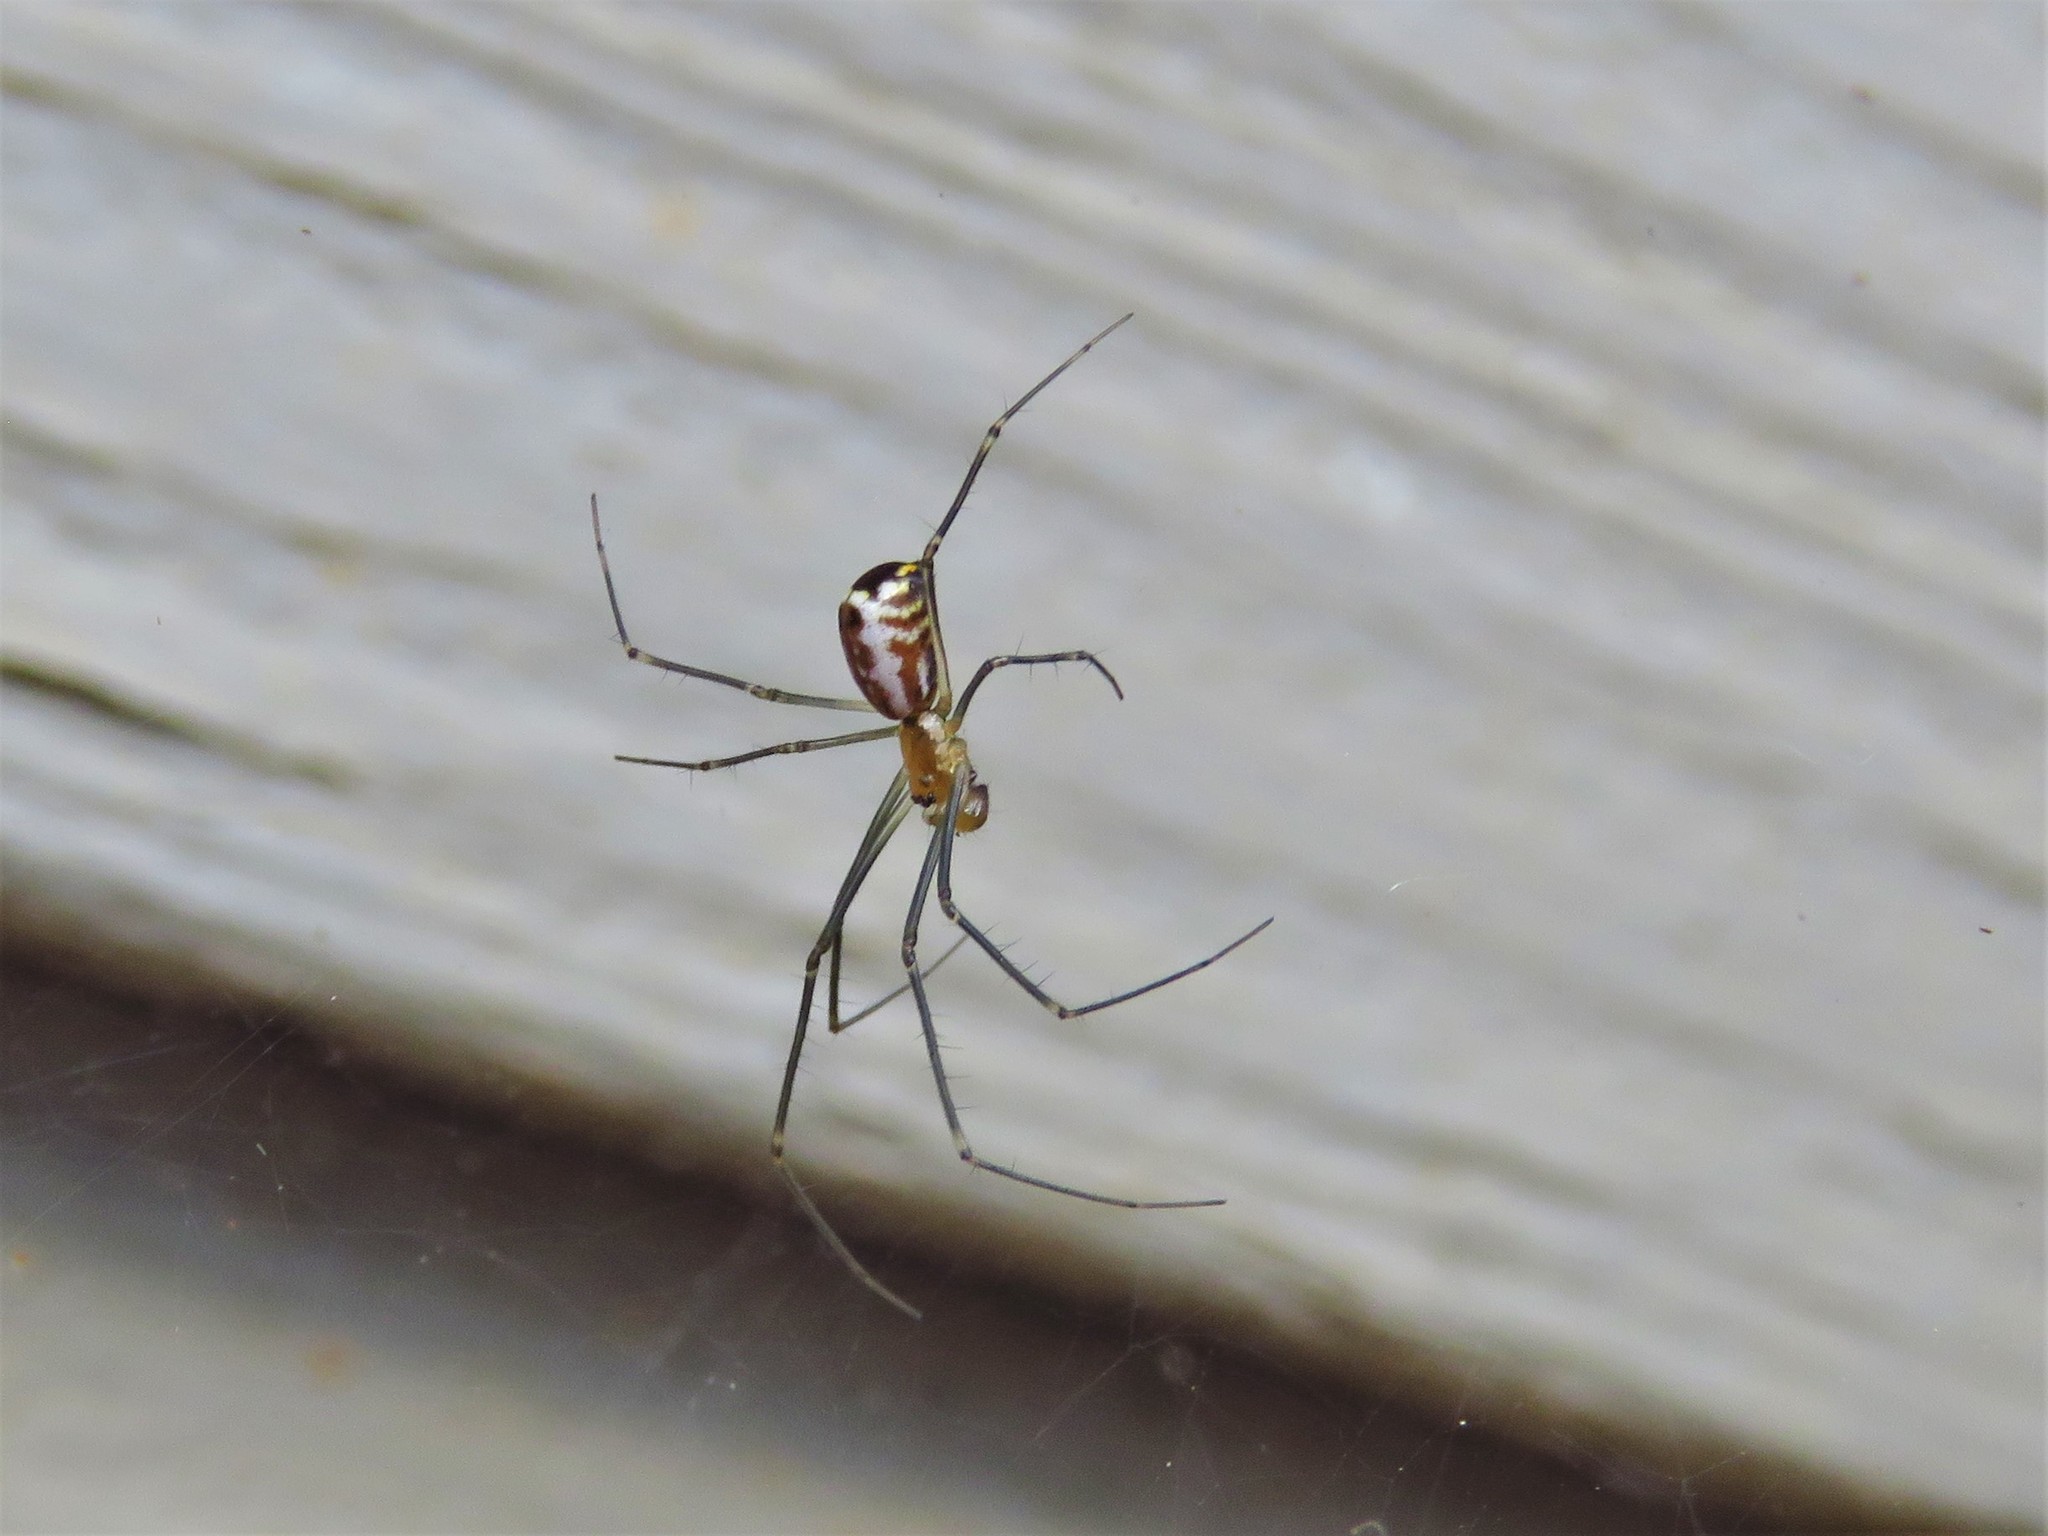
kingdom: Animalia
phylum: Arthropoda
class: Arachnida
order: Araneae
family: Linyphiidae
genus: Neriene
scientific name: Neriene radiata
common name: Filmy dome spider
